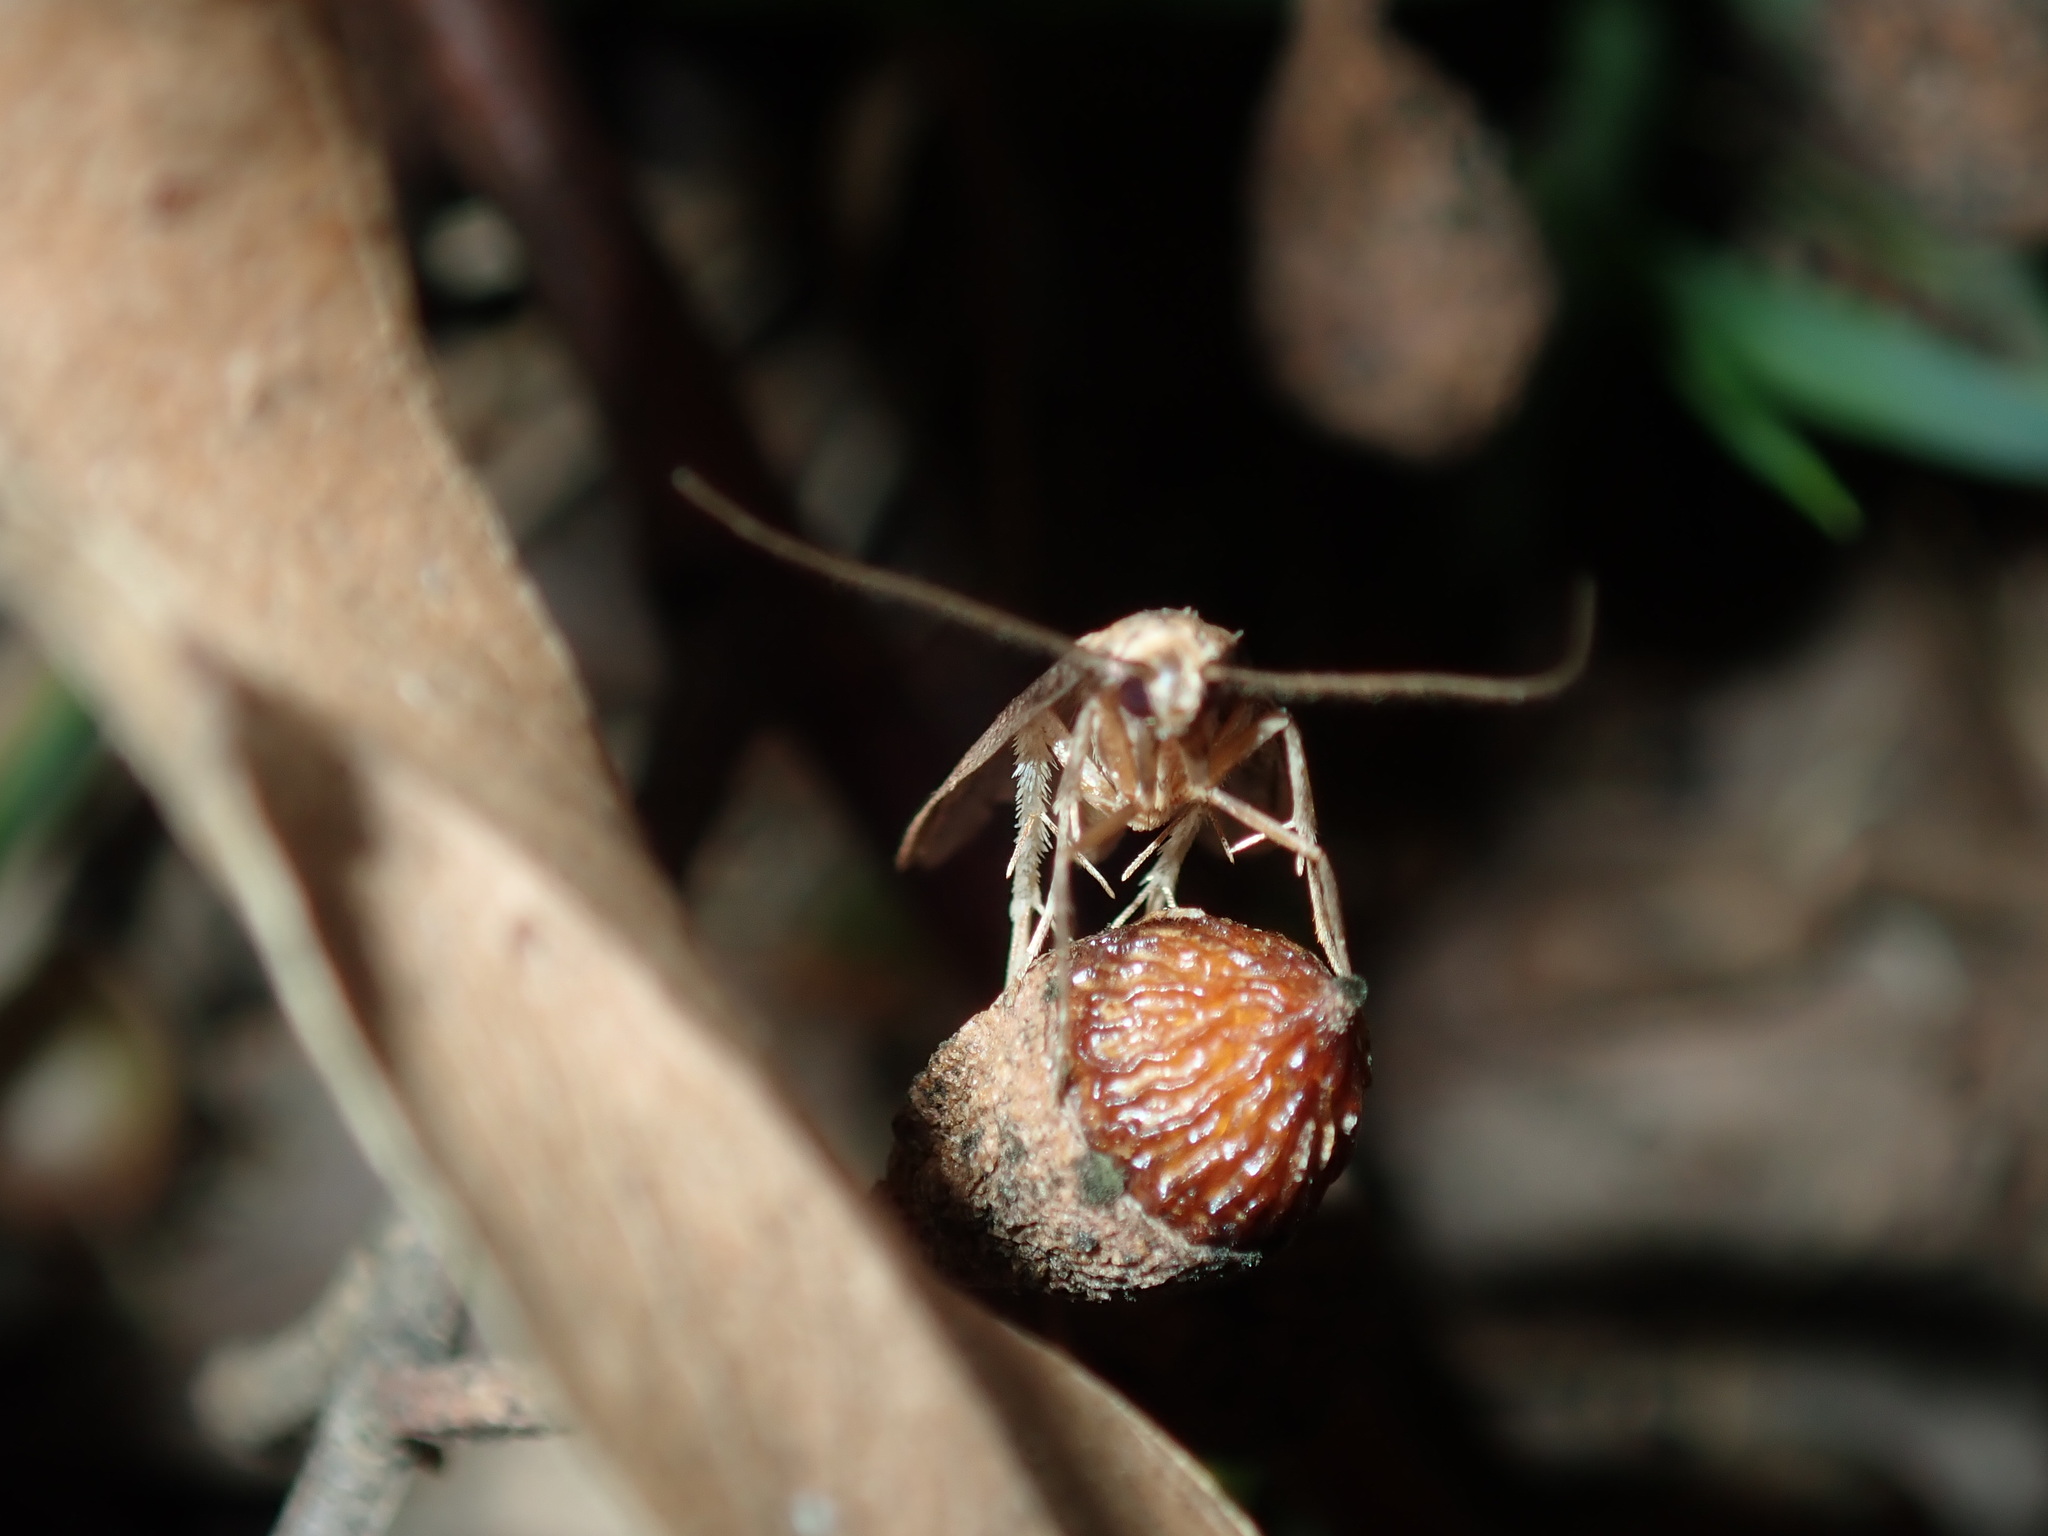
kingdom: Animalia
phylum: Arthropoda
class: Insecta
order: Lepidoptera
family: Oecophoridae
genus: Leptocroca
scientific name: Leptocroca sanguinolenta
